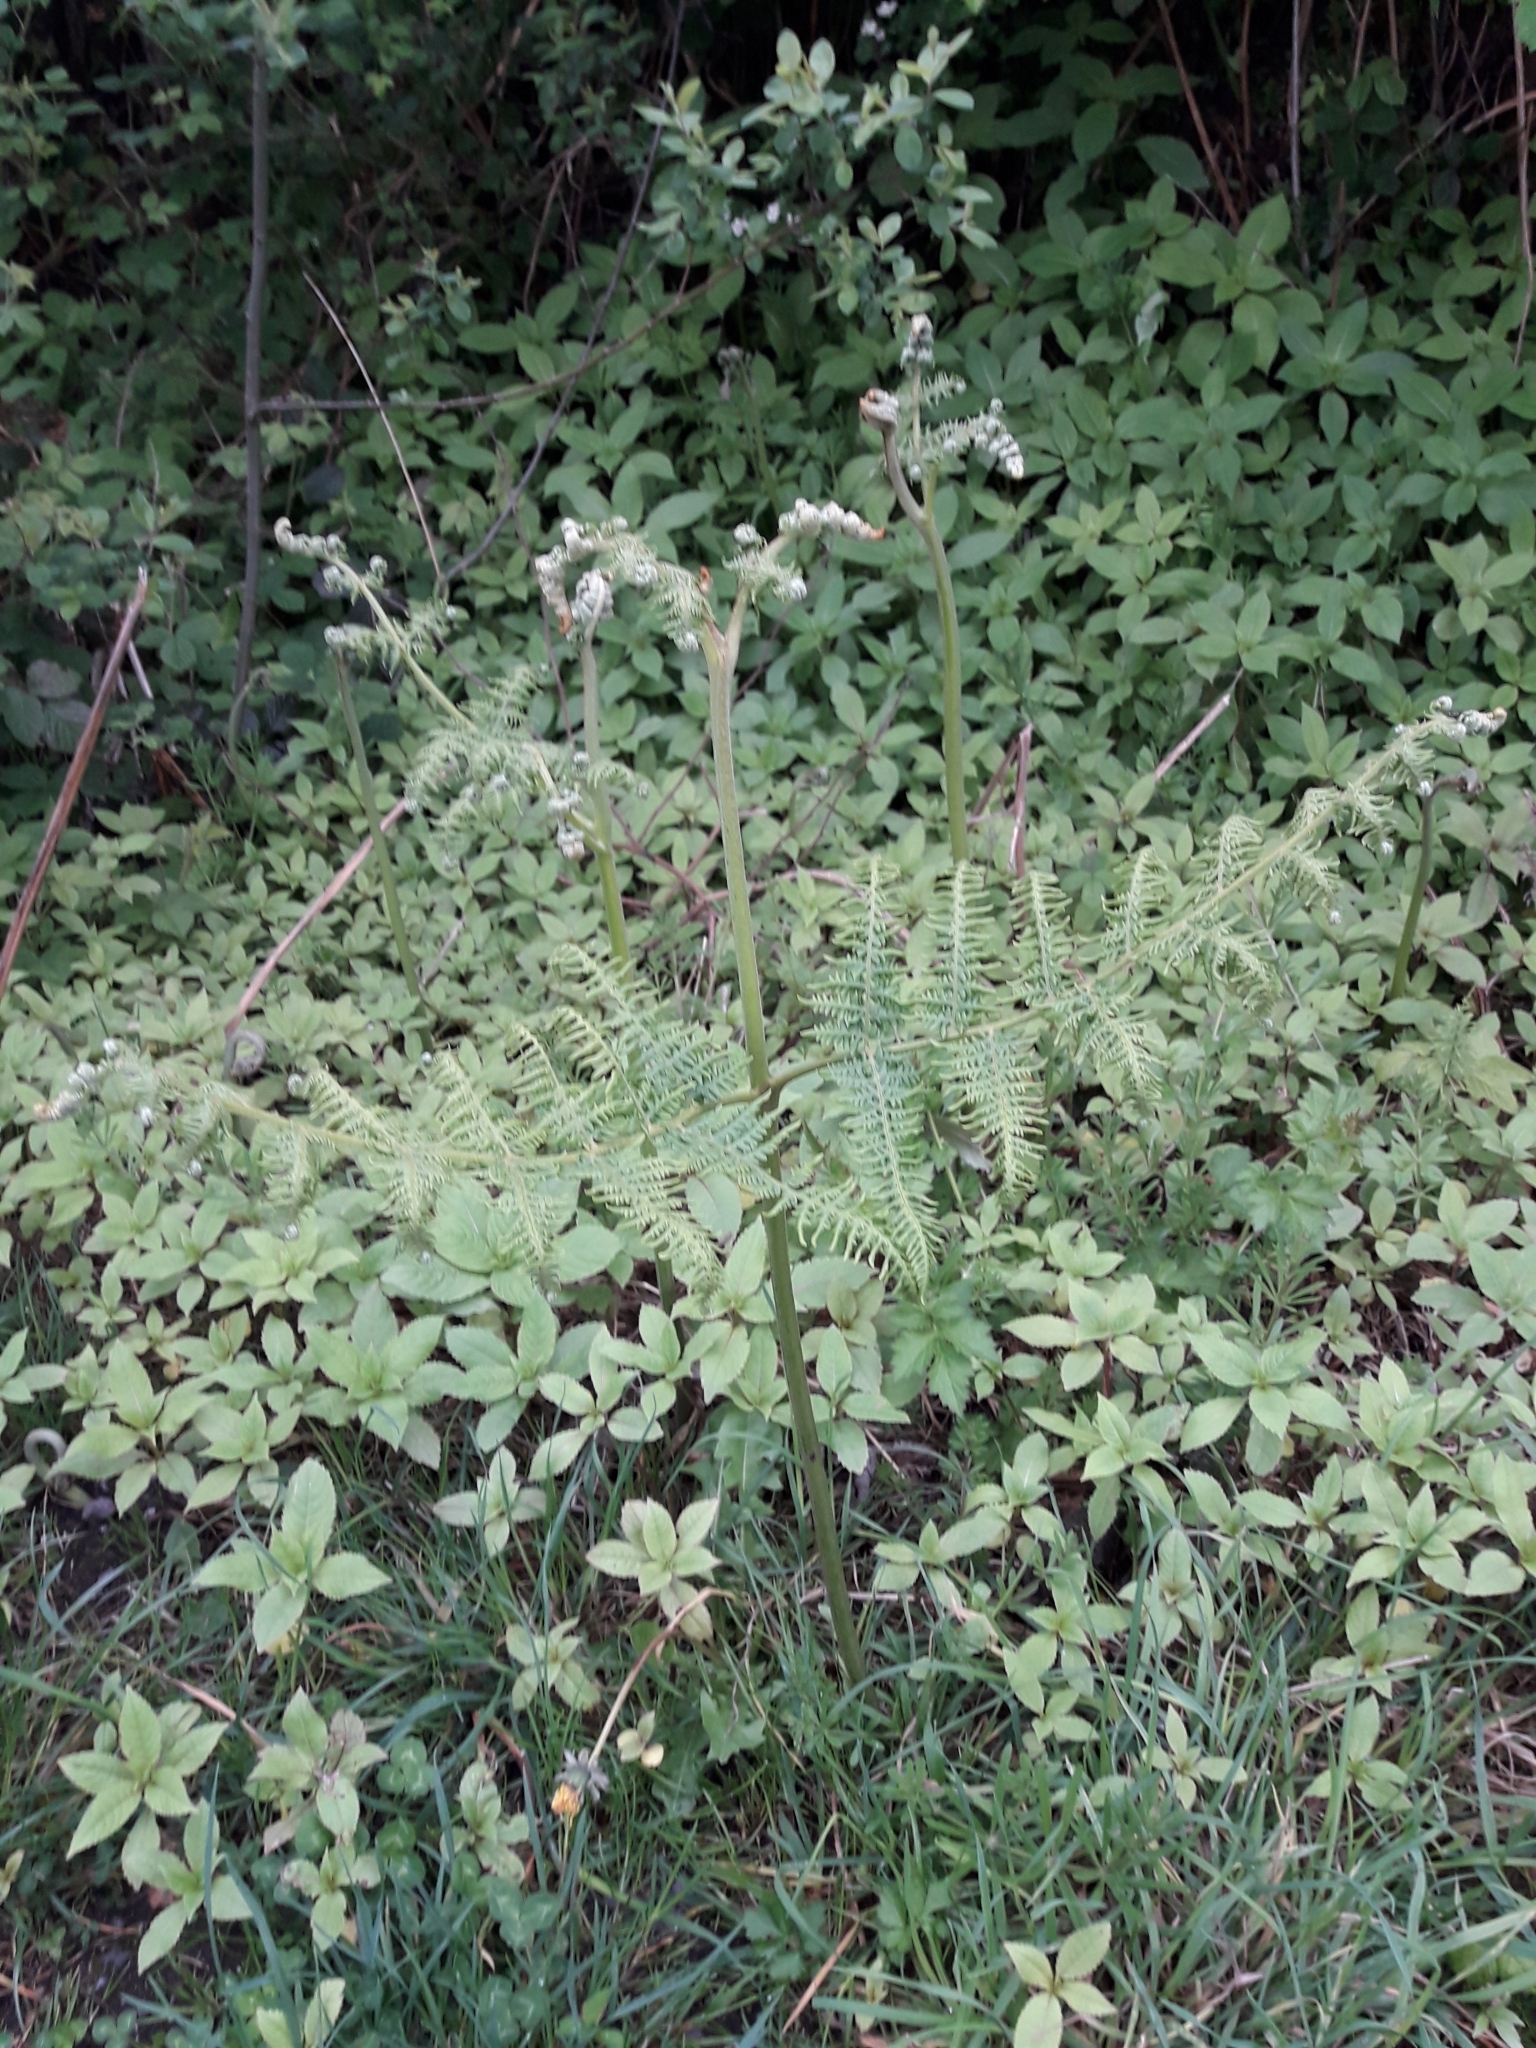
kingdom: Plantae
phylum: Tracheophyta
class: Polypodiopsida
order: Polypodiales
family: Dennstaedtiaceae
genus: Pteridium
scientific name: Pteridium aquilinum
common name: Bracken
